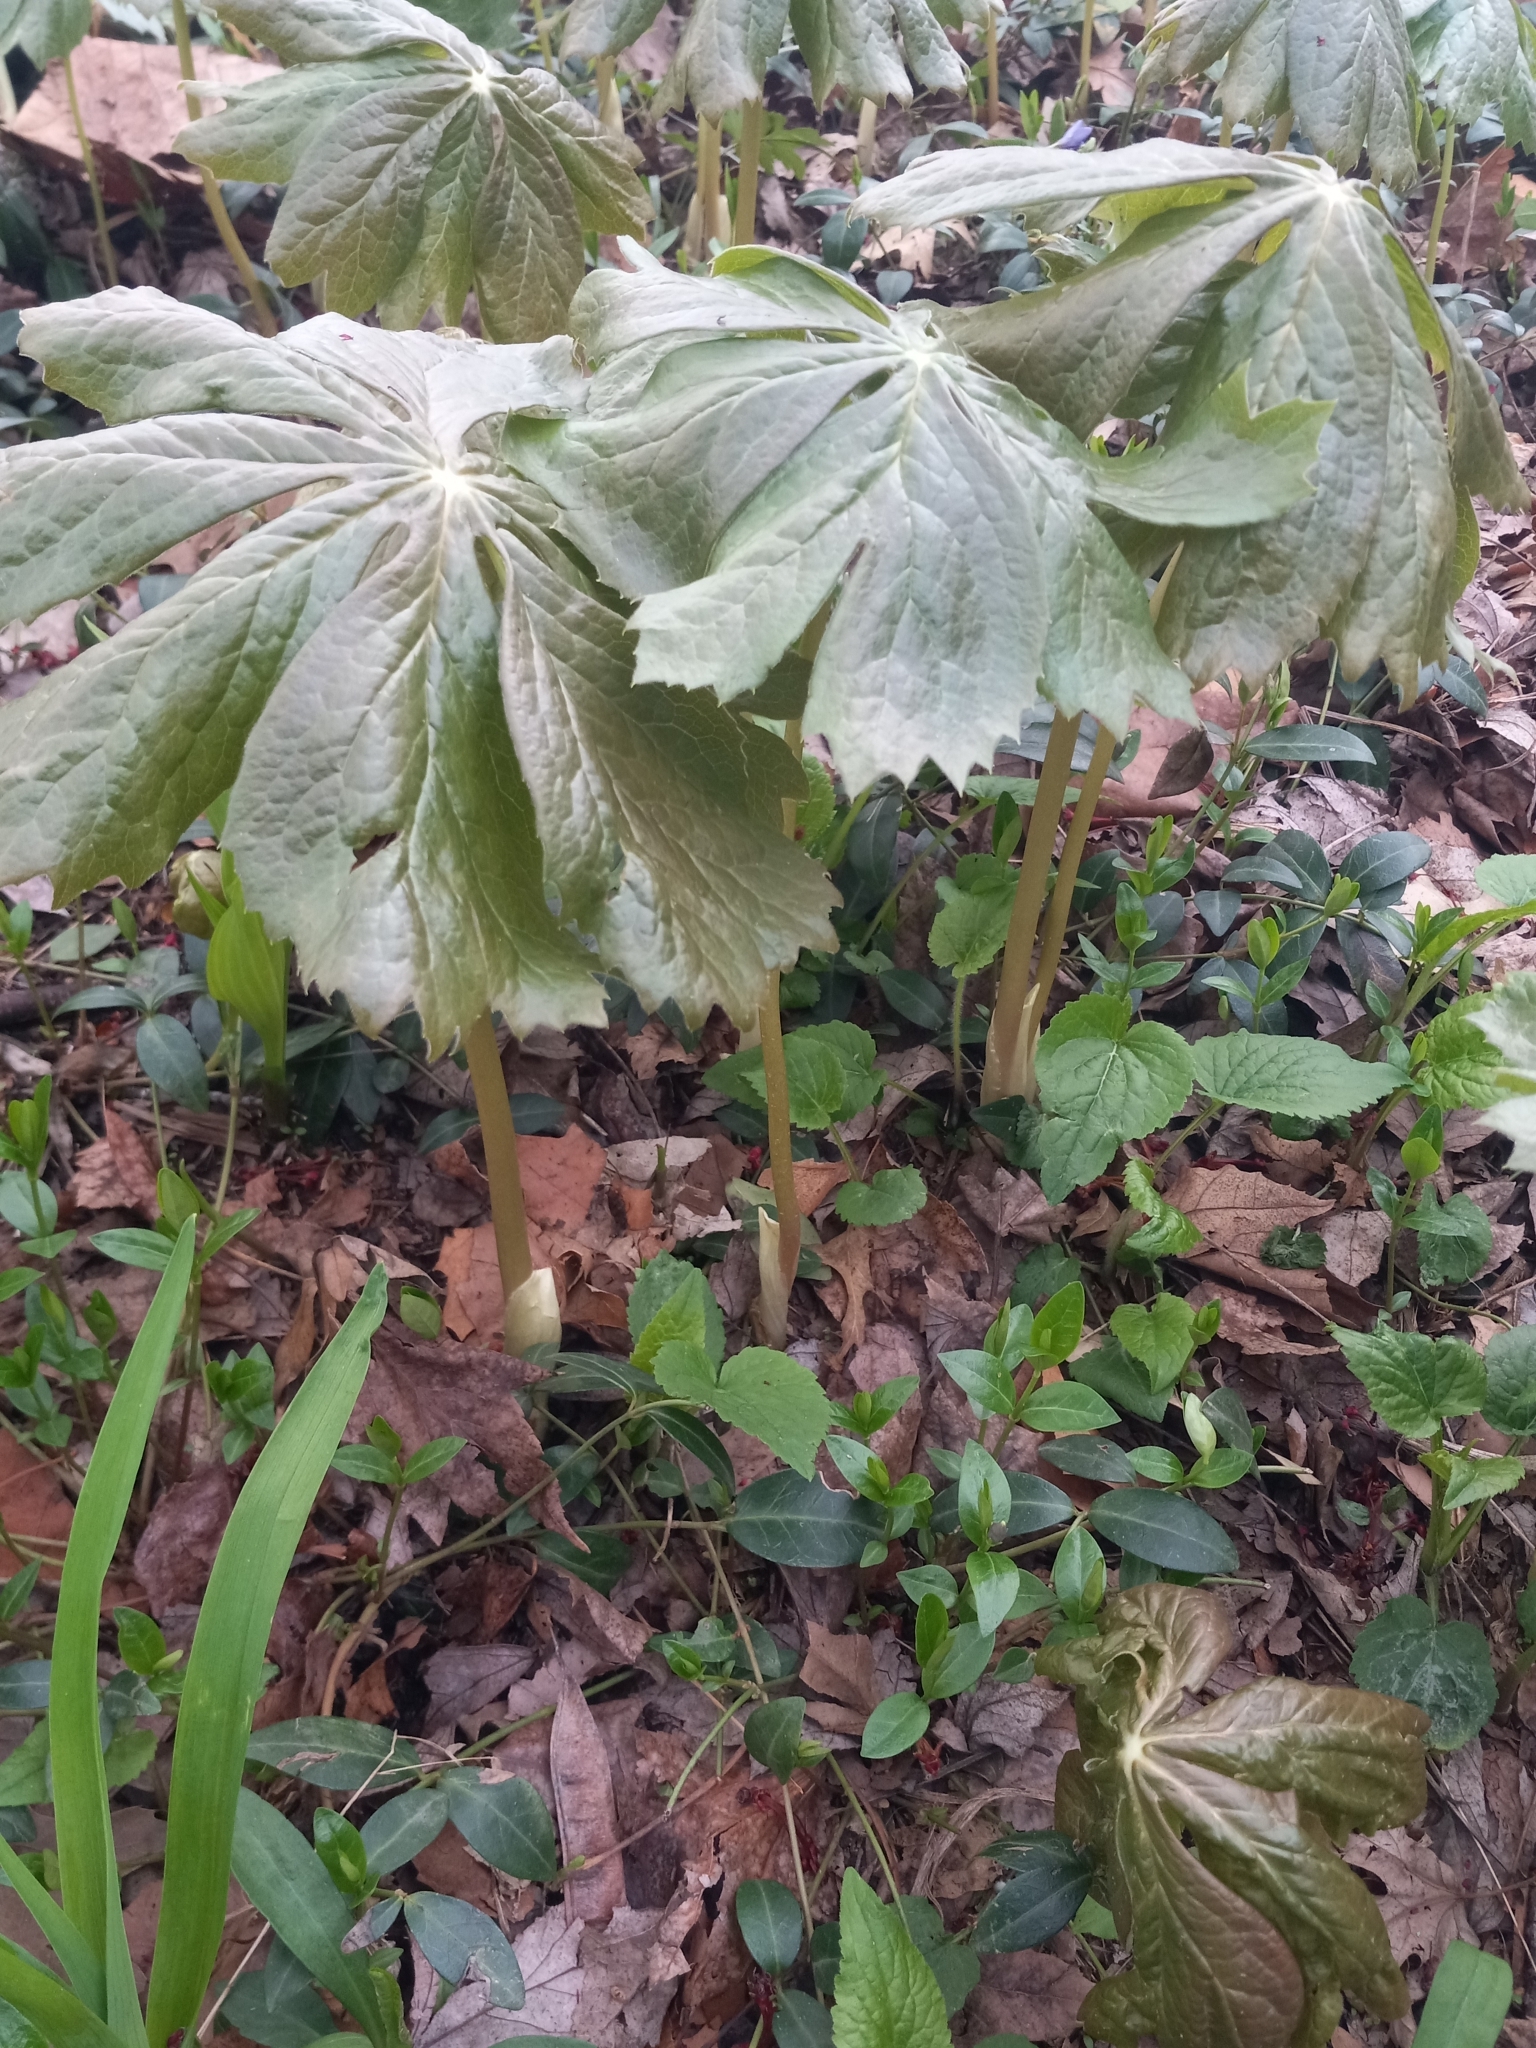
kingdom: Plantae
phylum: Tracheophyta
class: Magnoliopsida
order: Ranunculales
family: Berberidaceae
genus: Podophyllum
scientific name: Podophyllum peltatum
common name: Wild mandrake
